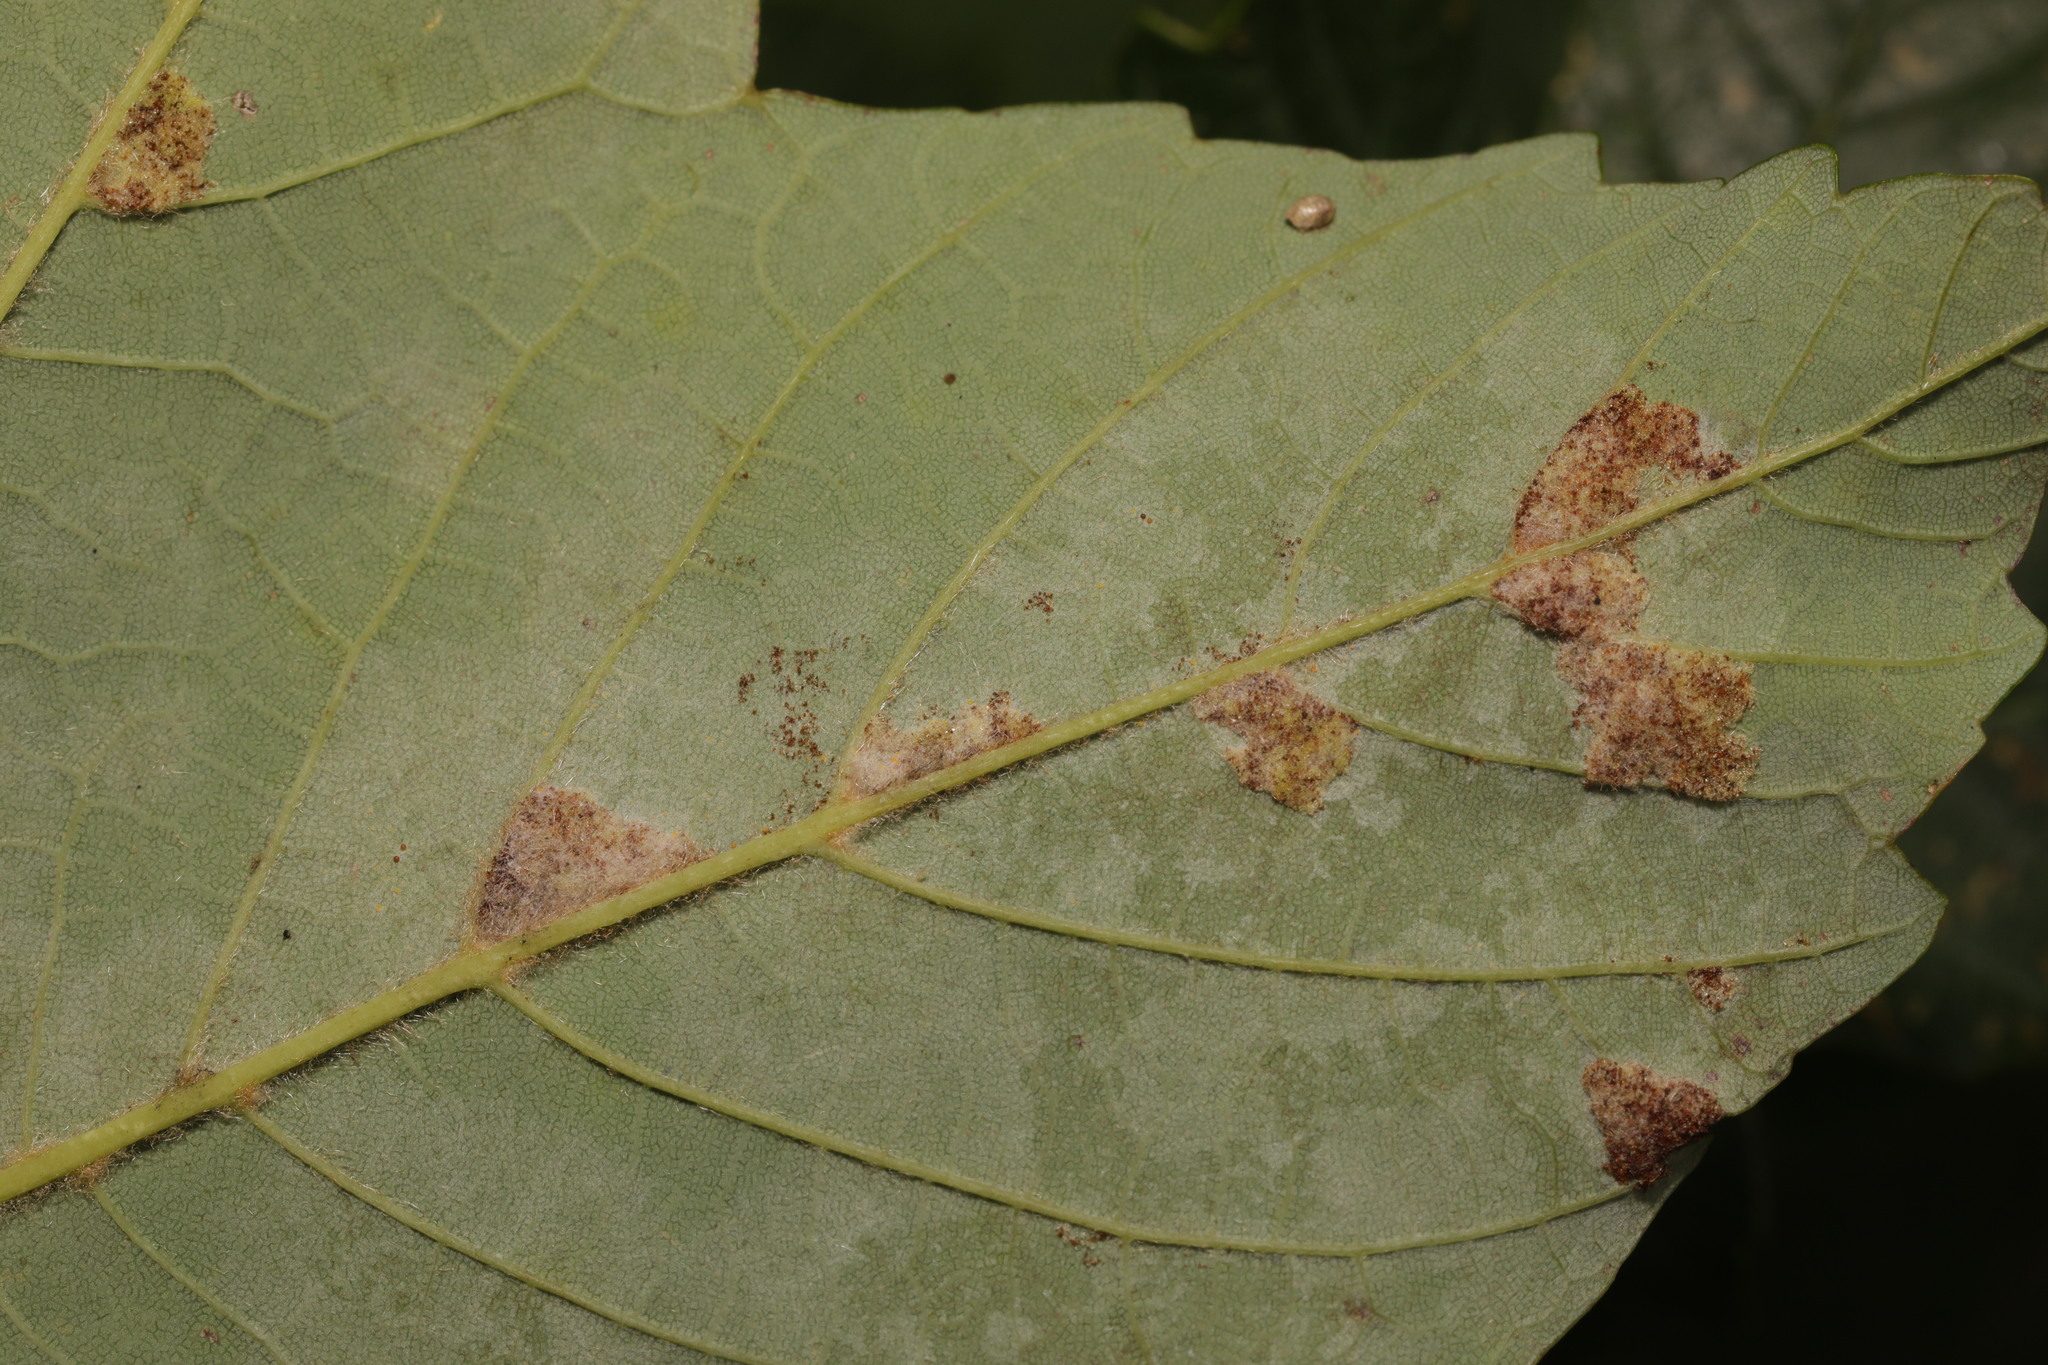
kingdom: Animalia
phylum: Arthropoda
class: Arachnida
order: Trombidiformes
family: Eriophyidae
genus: Aceria
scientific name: Aceria pseudoplatani
